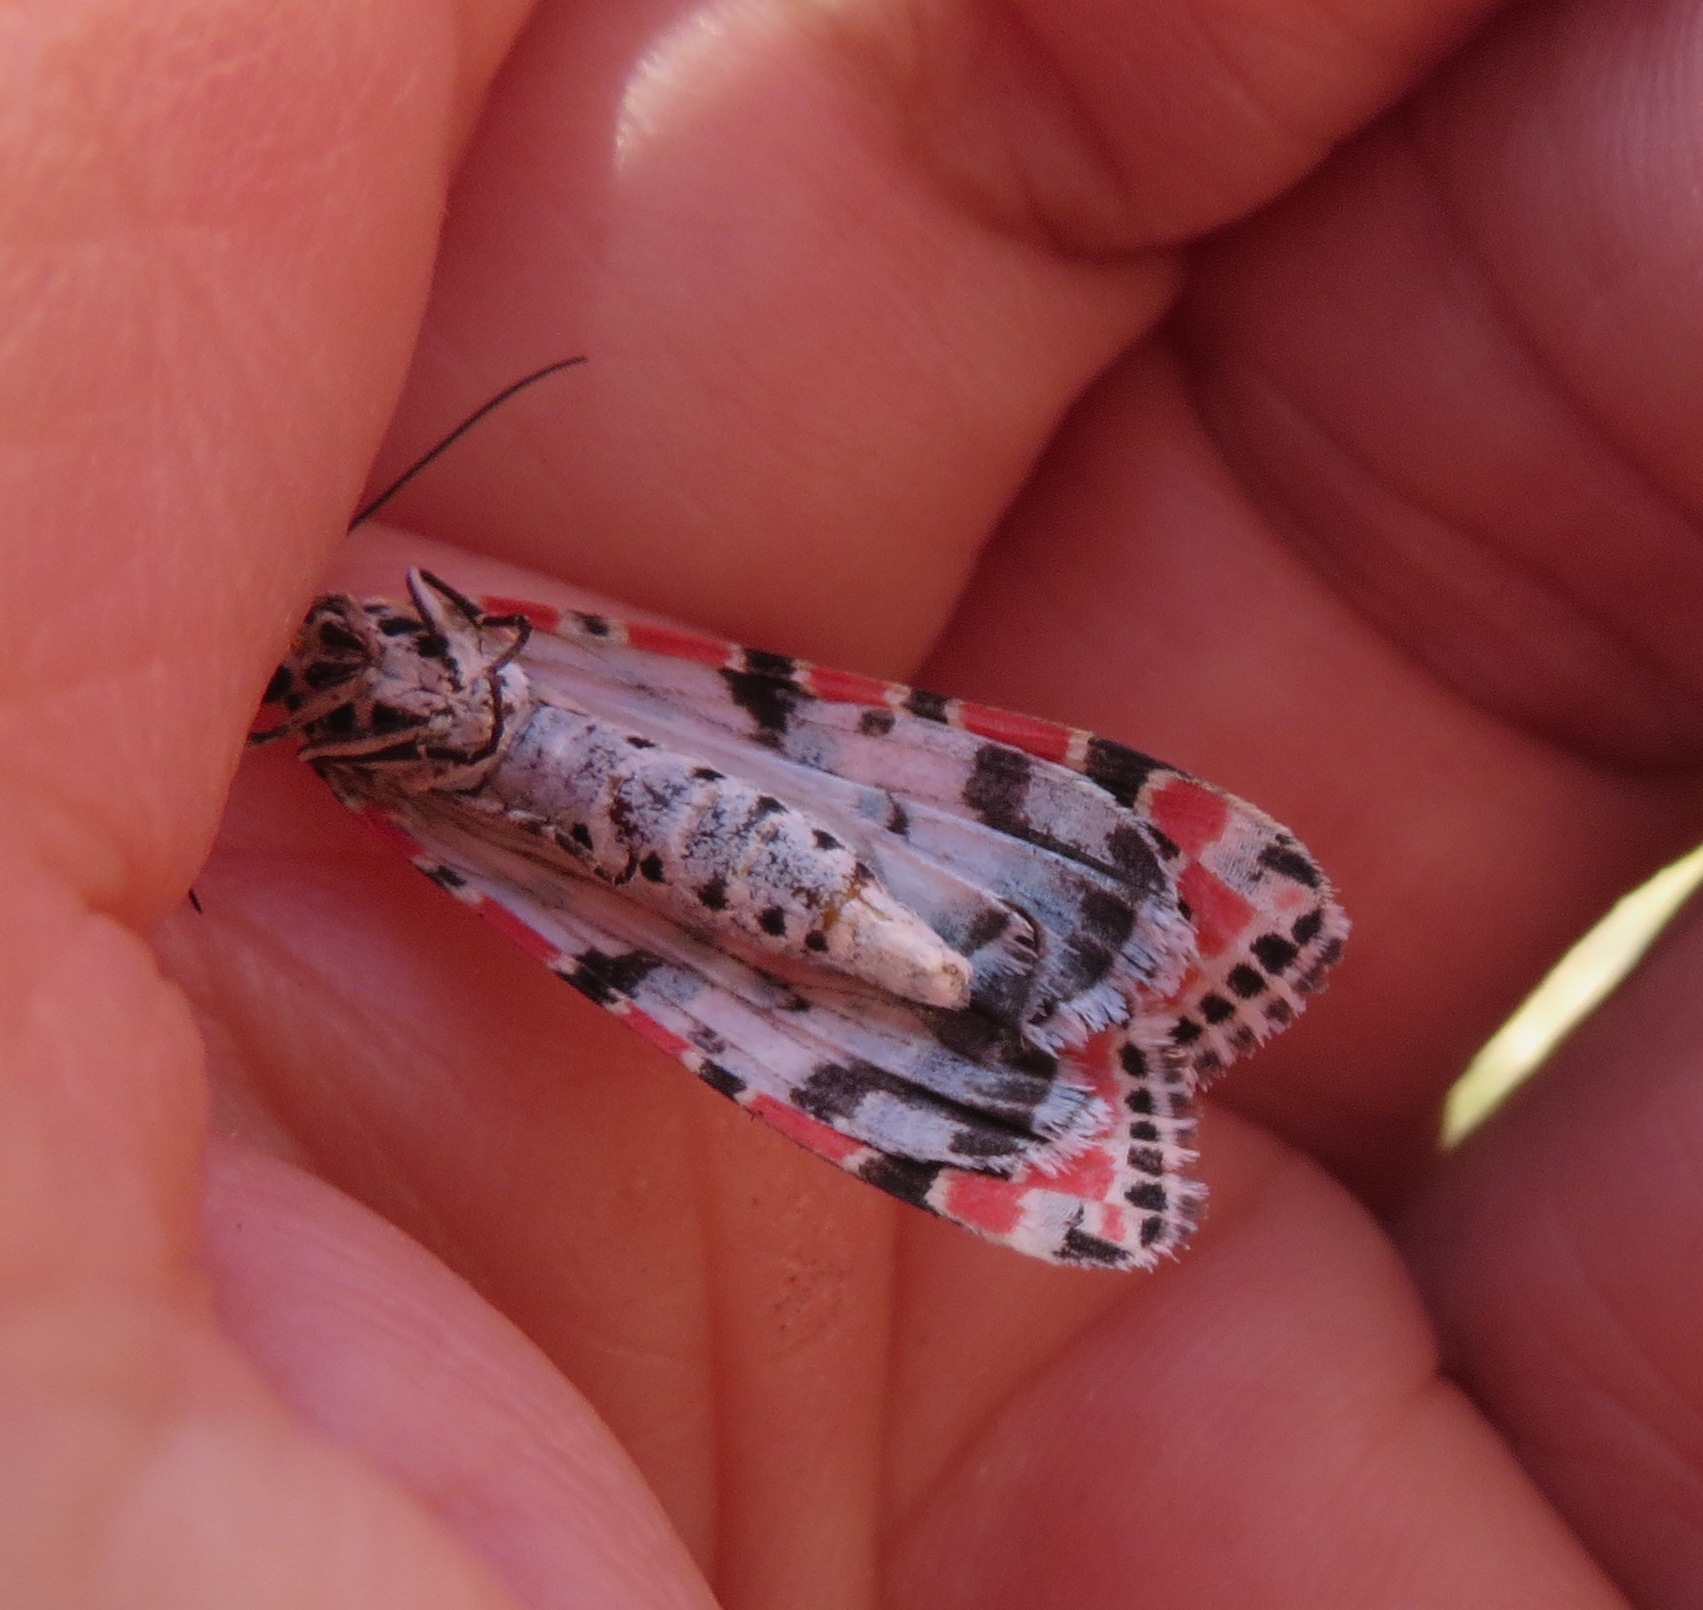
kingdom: Animalia
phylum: Arthropoda
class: Insecta
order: Lepidoptera
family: Erebidae
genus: Utetheisa
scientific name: Utetheisa pulchella
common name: Crimson speckled
